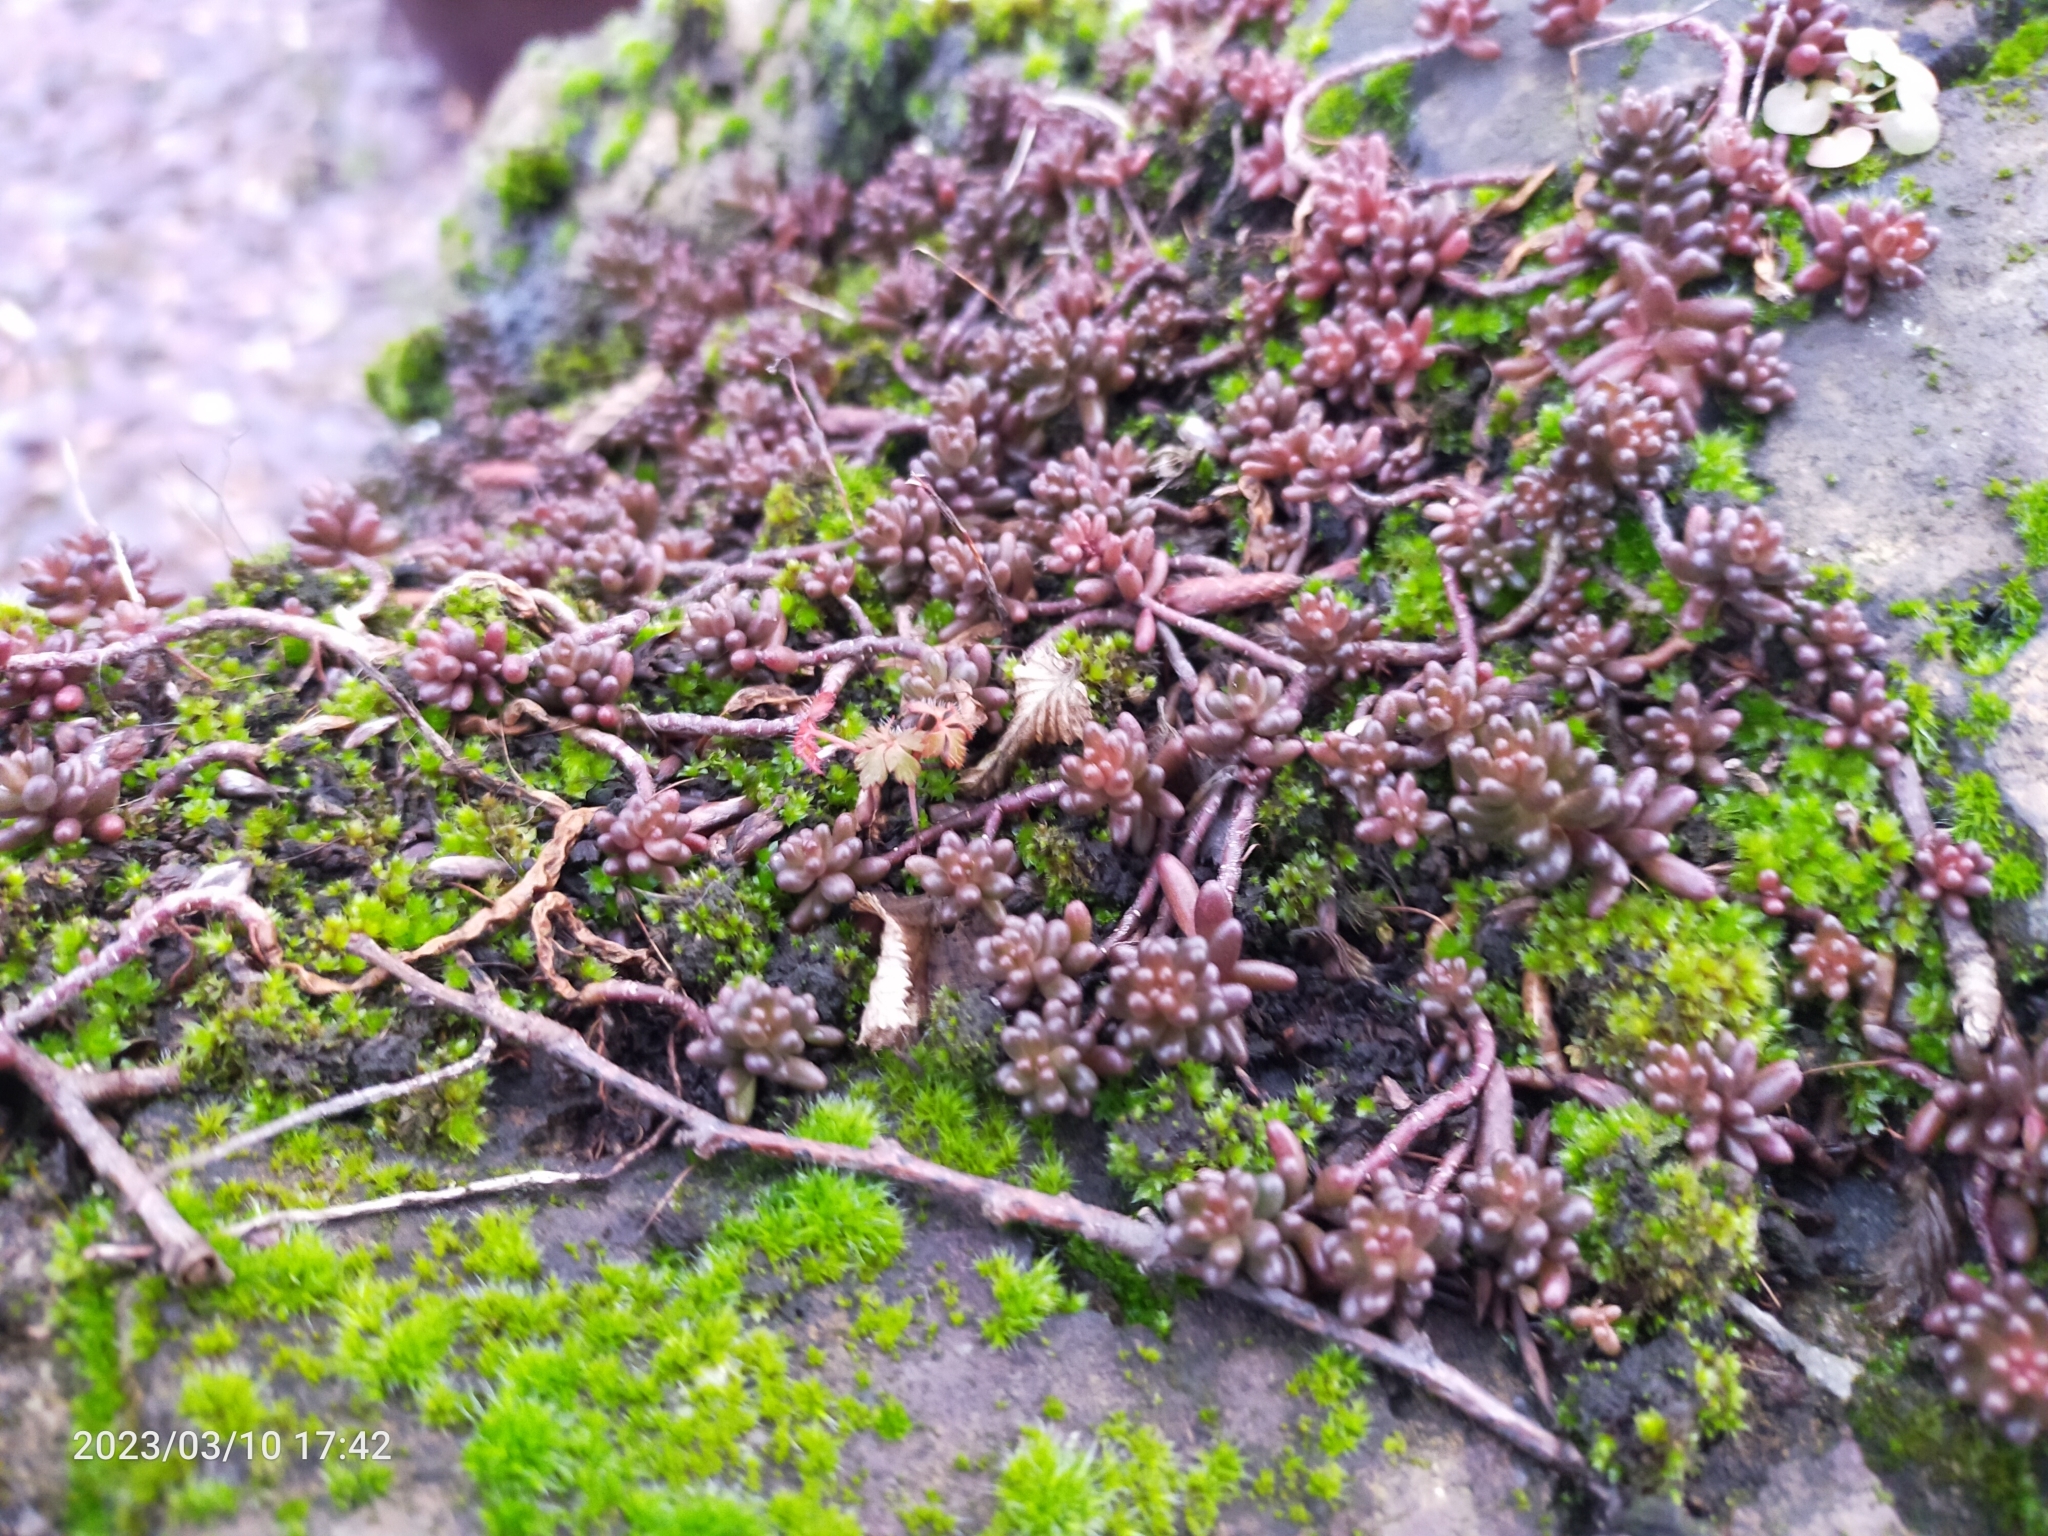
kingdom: Plantae
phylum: Tracheophyta
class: Magnoliopsida
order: Saxifragales
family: Crassulaceae
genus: Sedum
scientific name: Sedum album
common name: White stonecrop
